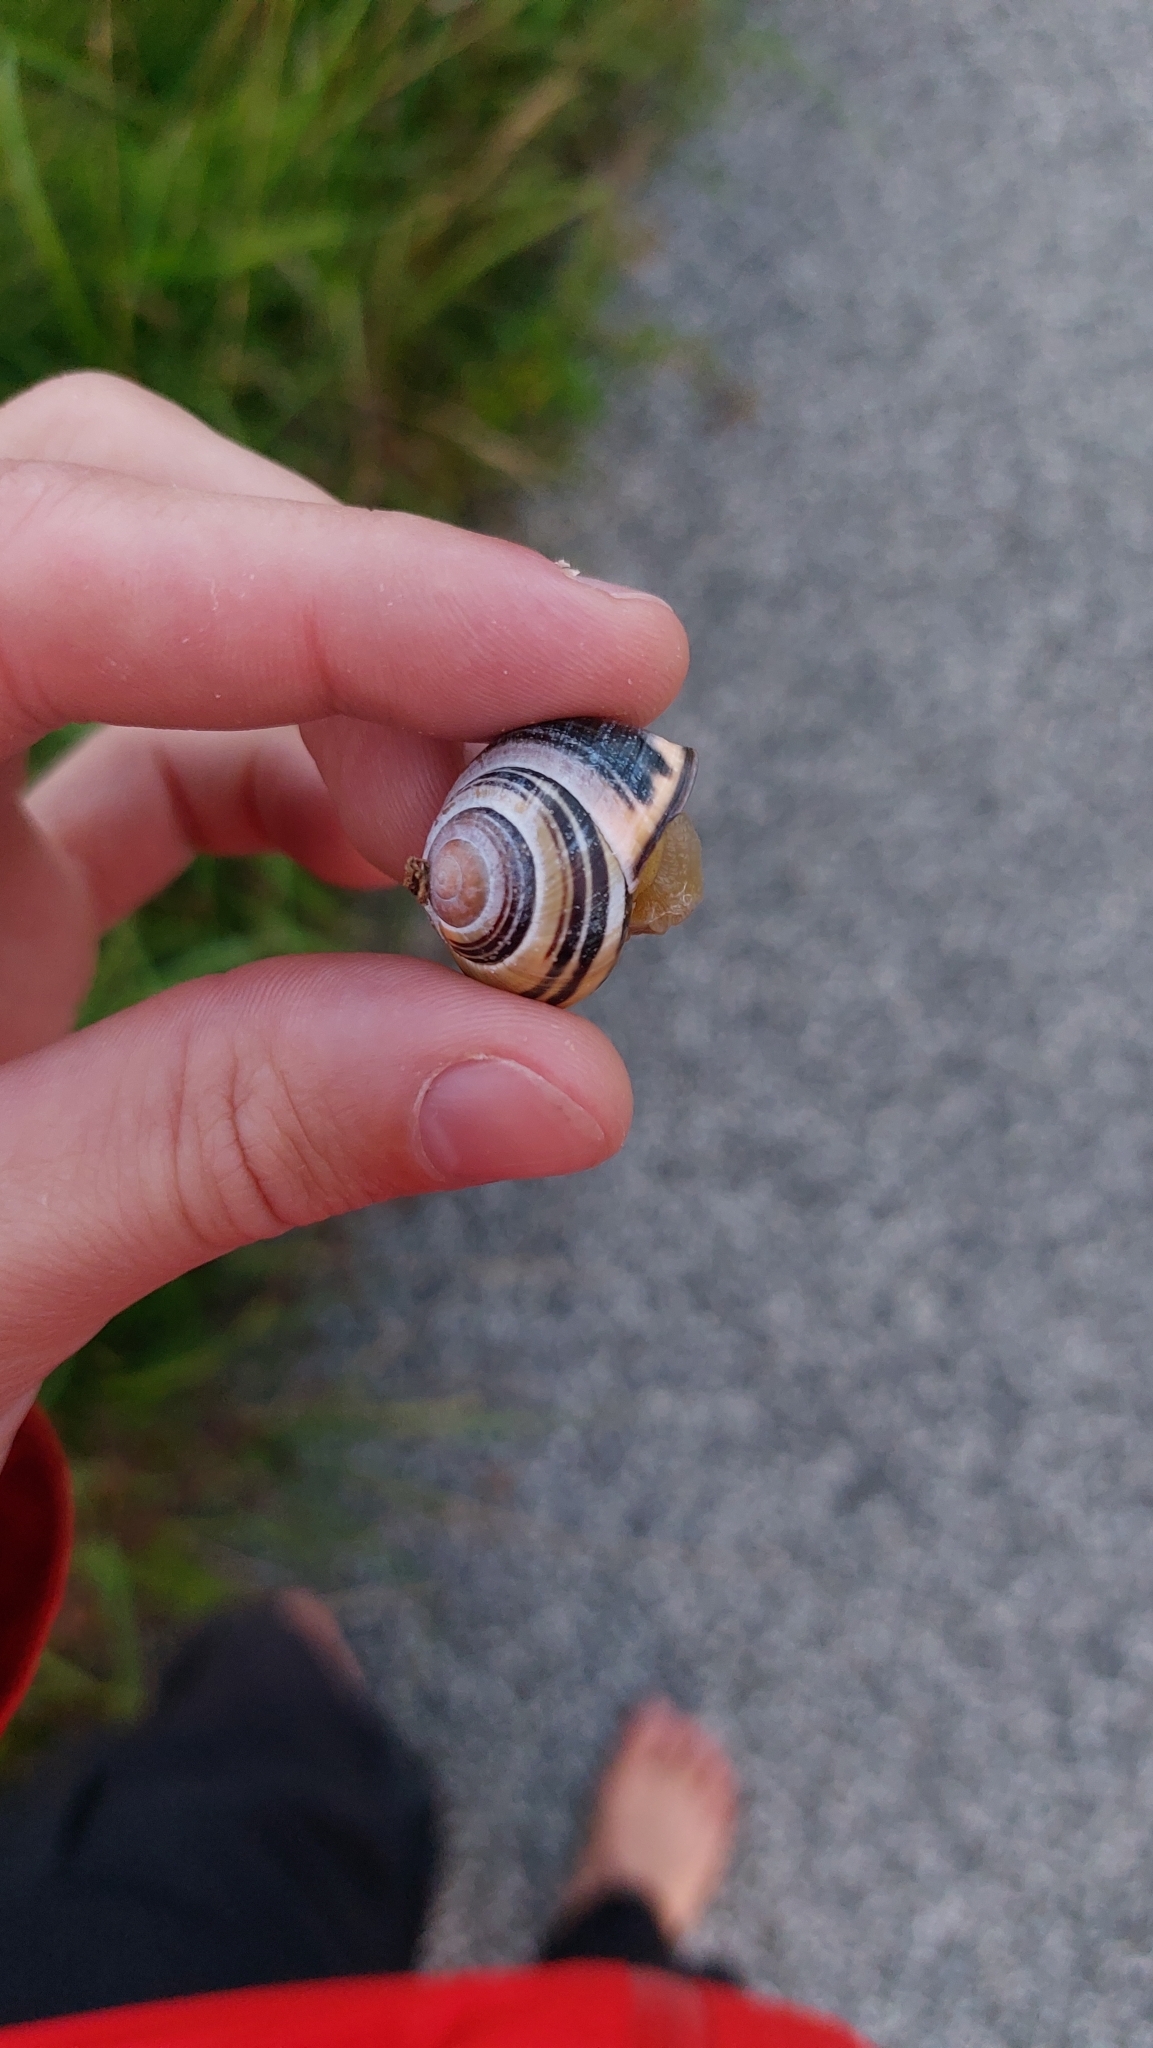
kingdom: Animalia
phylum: Mollusca
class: Gastropoda
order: Stylommatophora
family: Helicidae
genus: Cepaea
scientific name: Cepaea nemoralis
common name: Grovesnail
